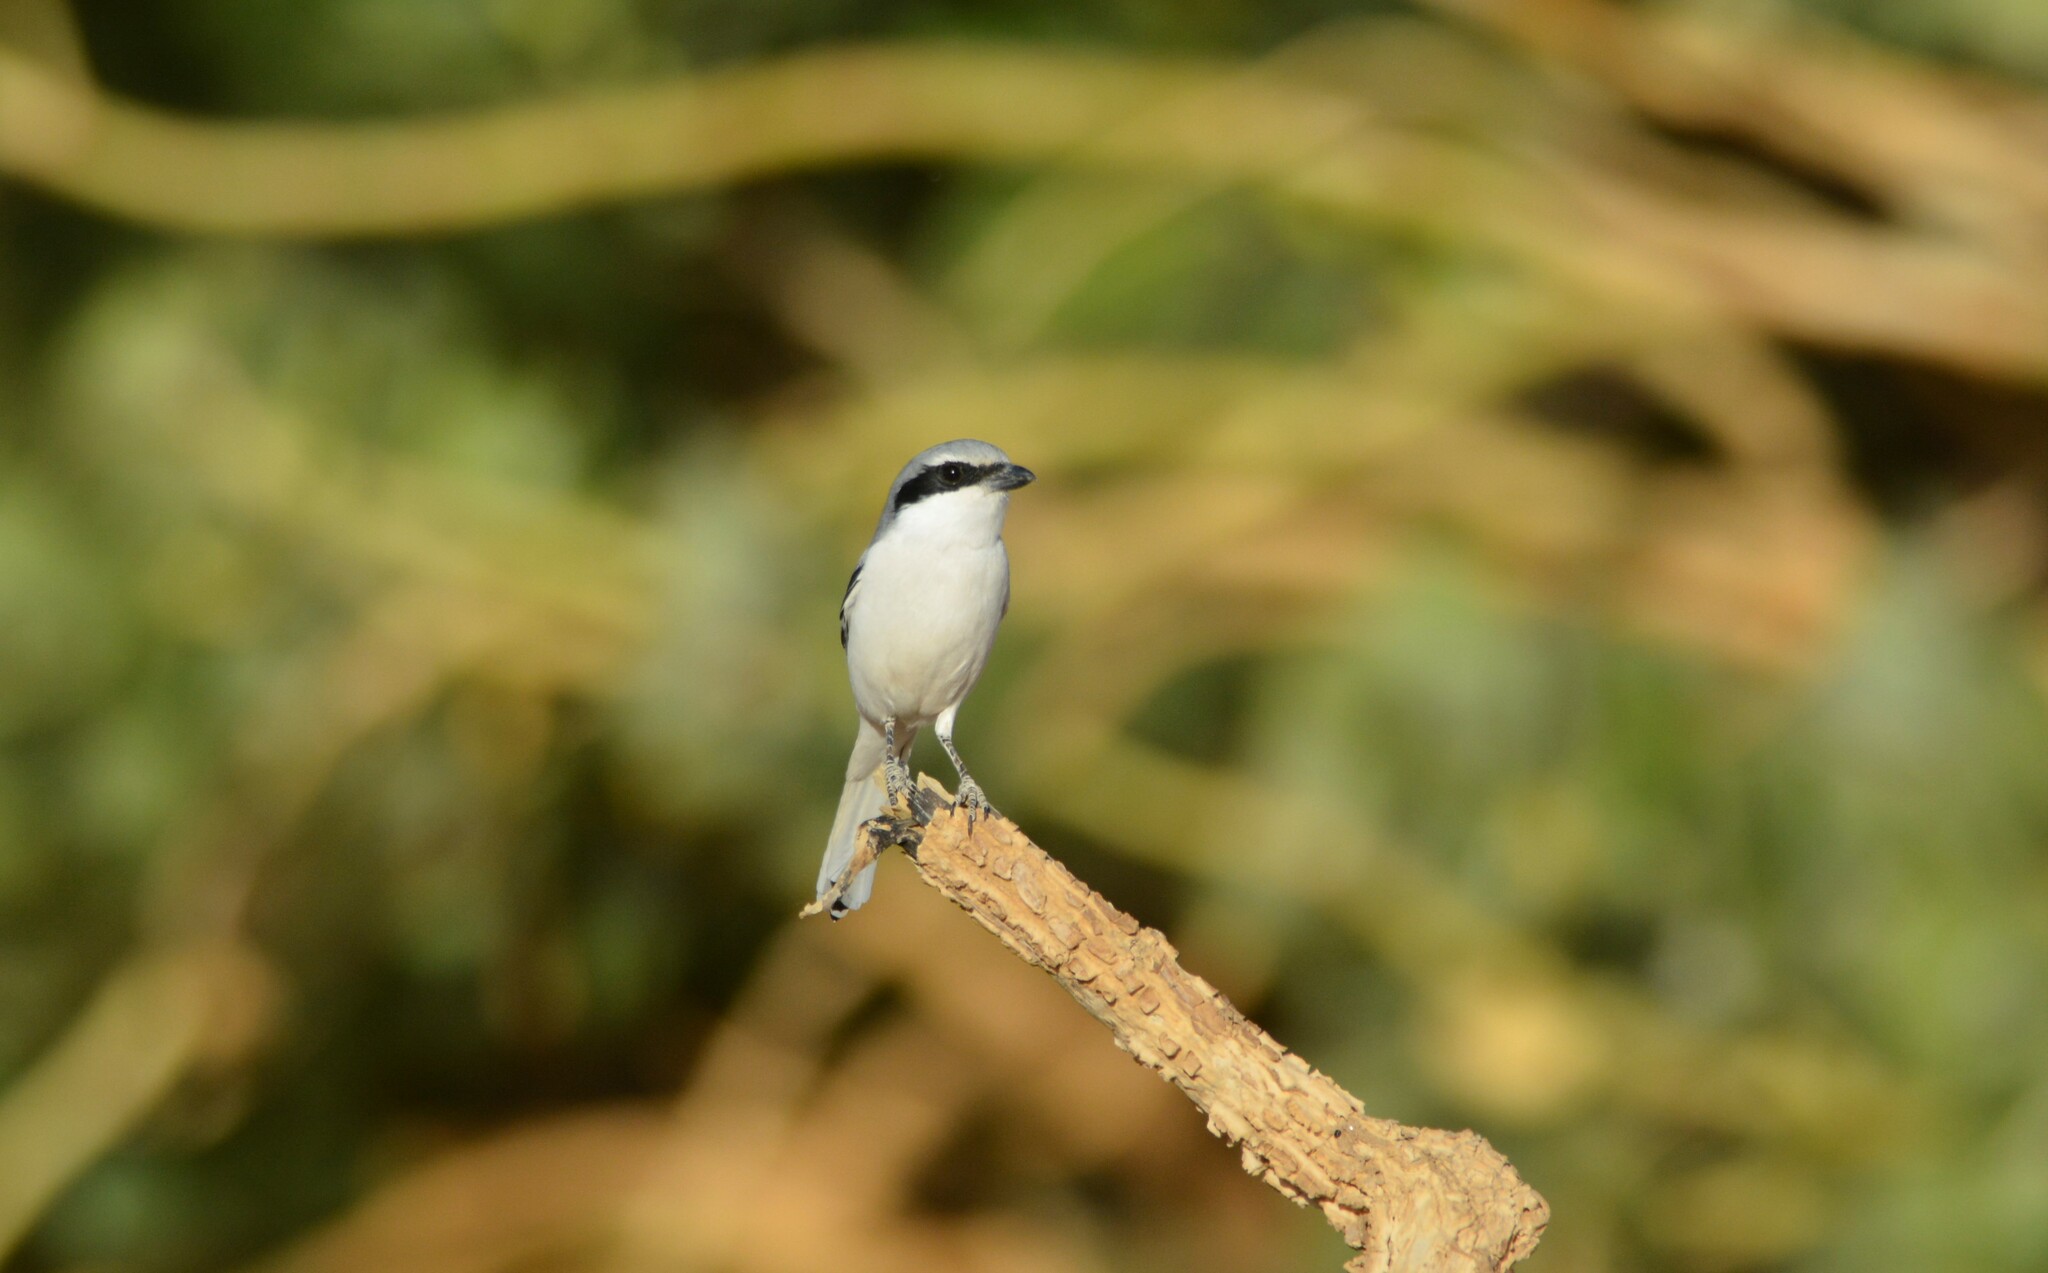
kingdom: Animalia
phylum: Chordata
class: Aves
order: Passeriformes
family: Laniidae
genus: Lanius
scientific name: Lanius excubitor
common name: Great grey shrike
